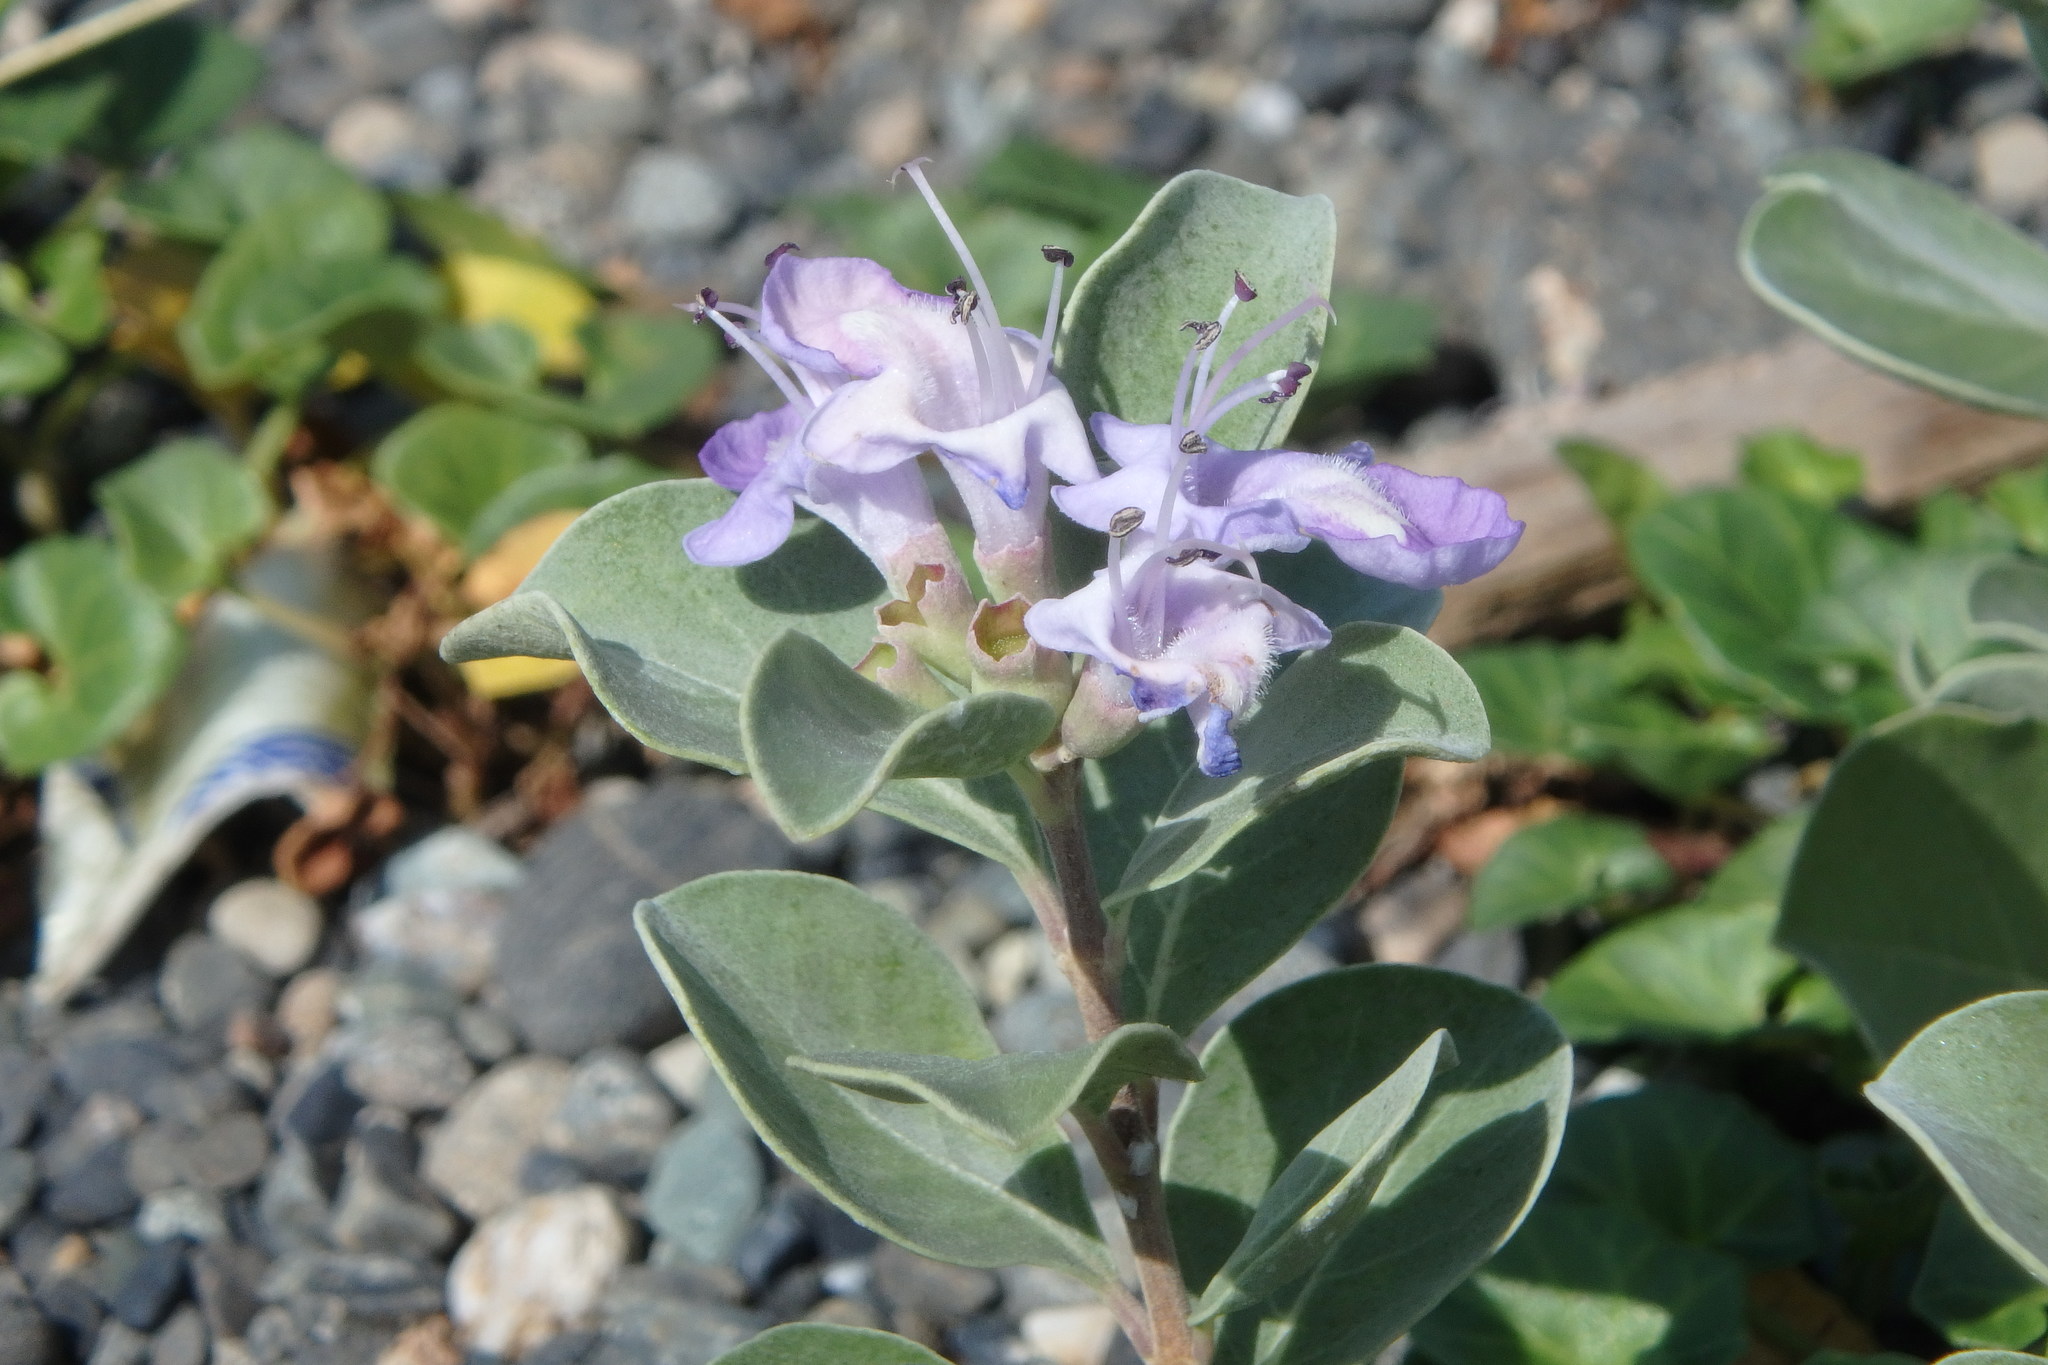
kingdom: Plantae
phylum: Tracheophyta
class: Magnoliopsida
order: Lamiales
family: Lamiaceae
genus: Vitex
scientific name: Vitex rotundifolia
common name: Beach vitex
